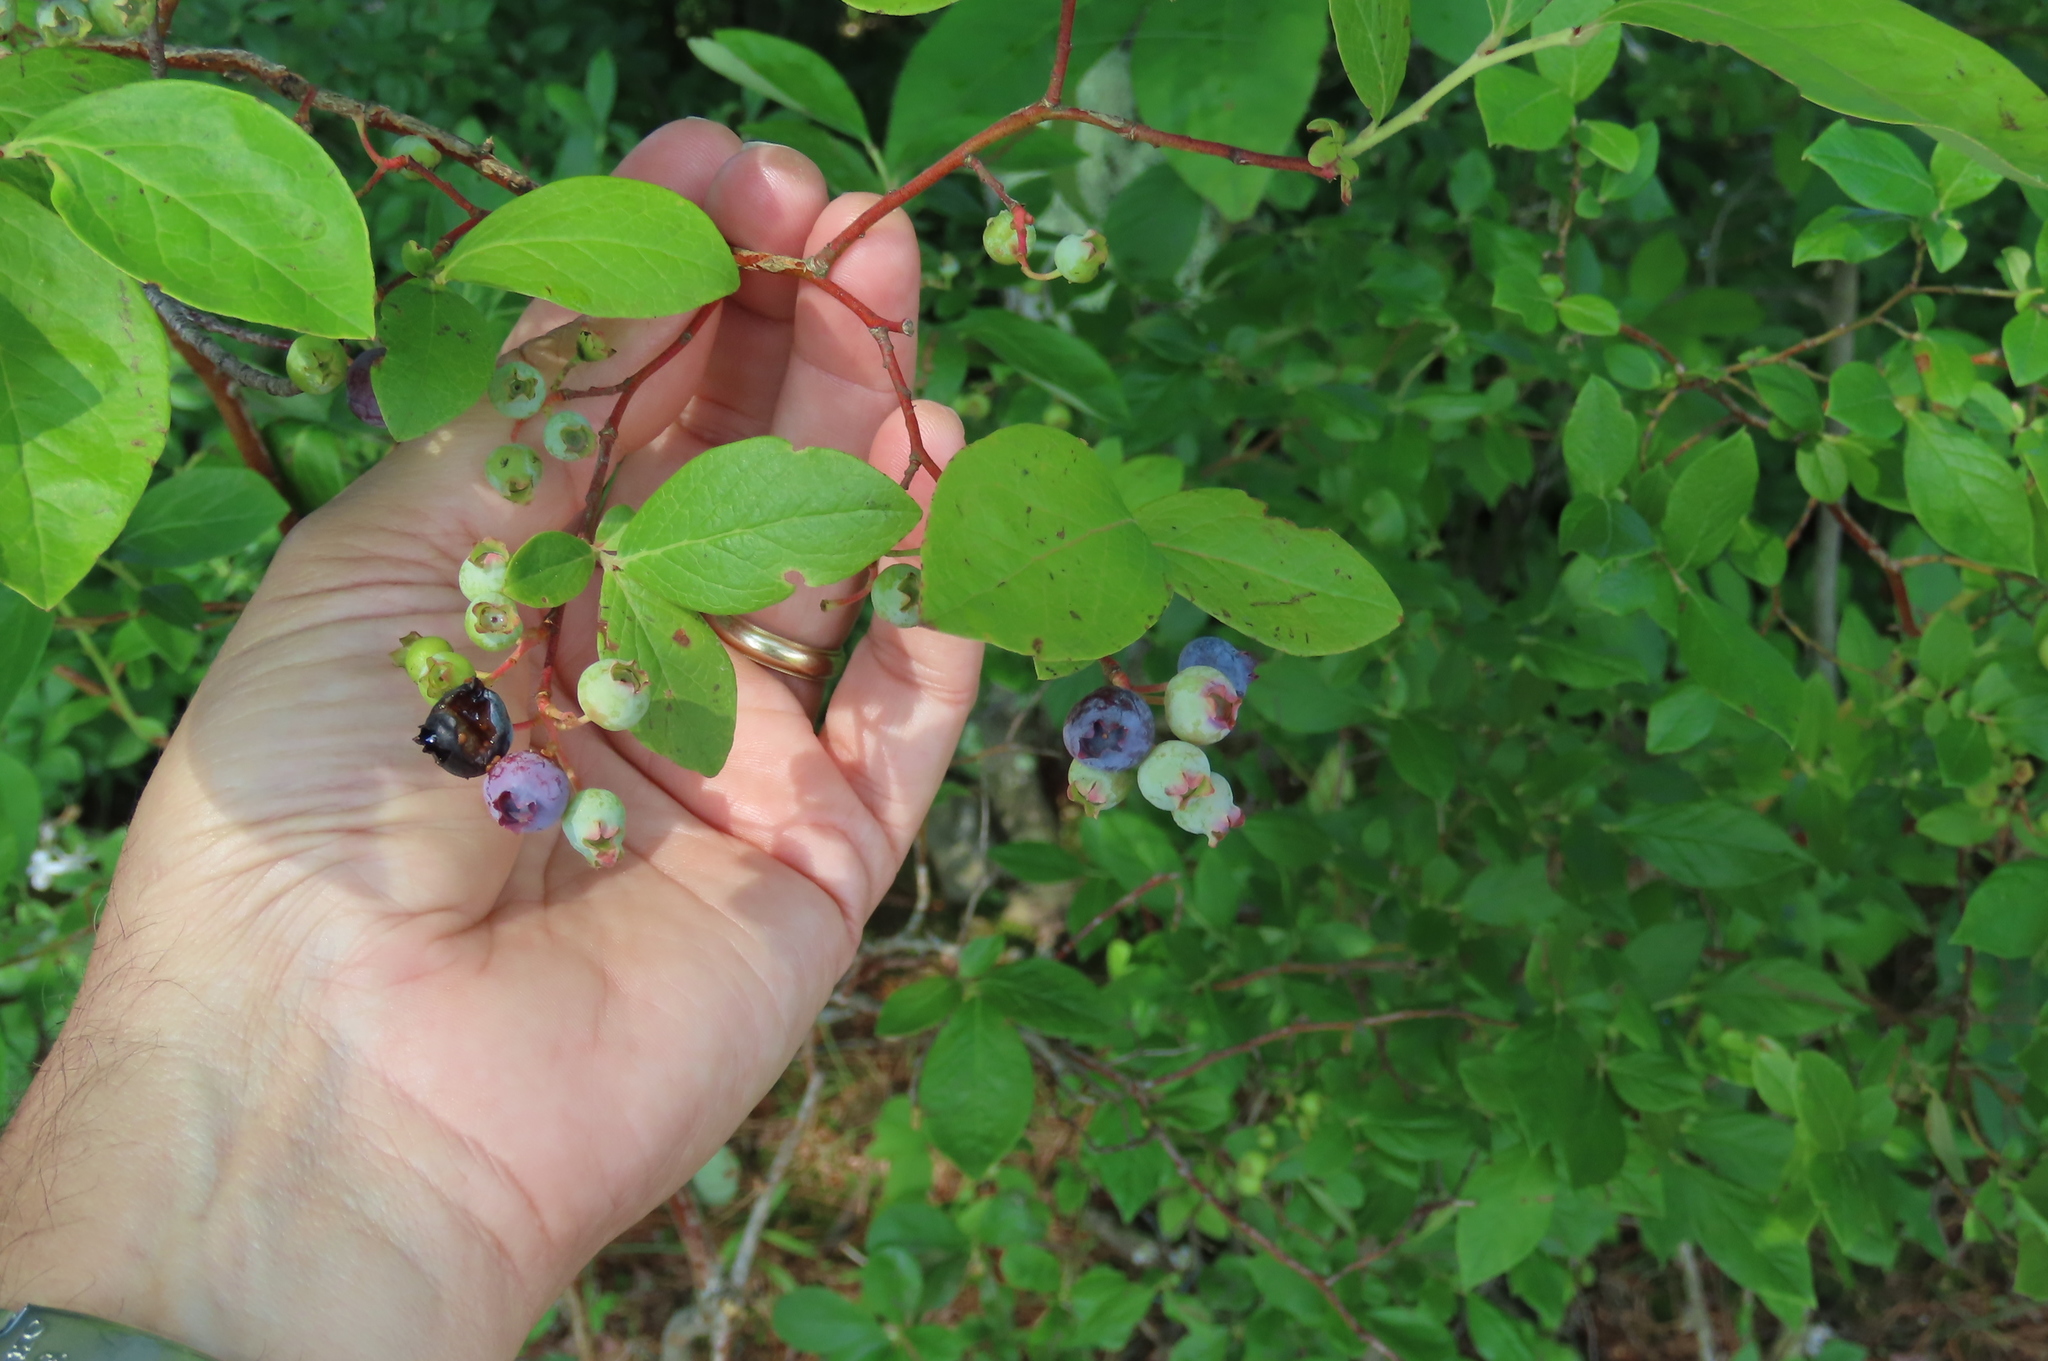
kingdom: Plantae
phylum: Tracheophyta
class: Magnoliopsida
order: Ericales
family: Ericaceae
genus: Vaccinium
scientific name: Vaccinium corymbosum
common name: Blueberry
